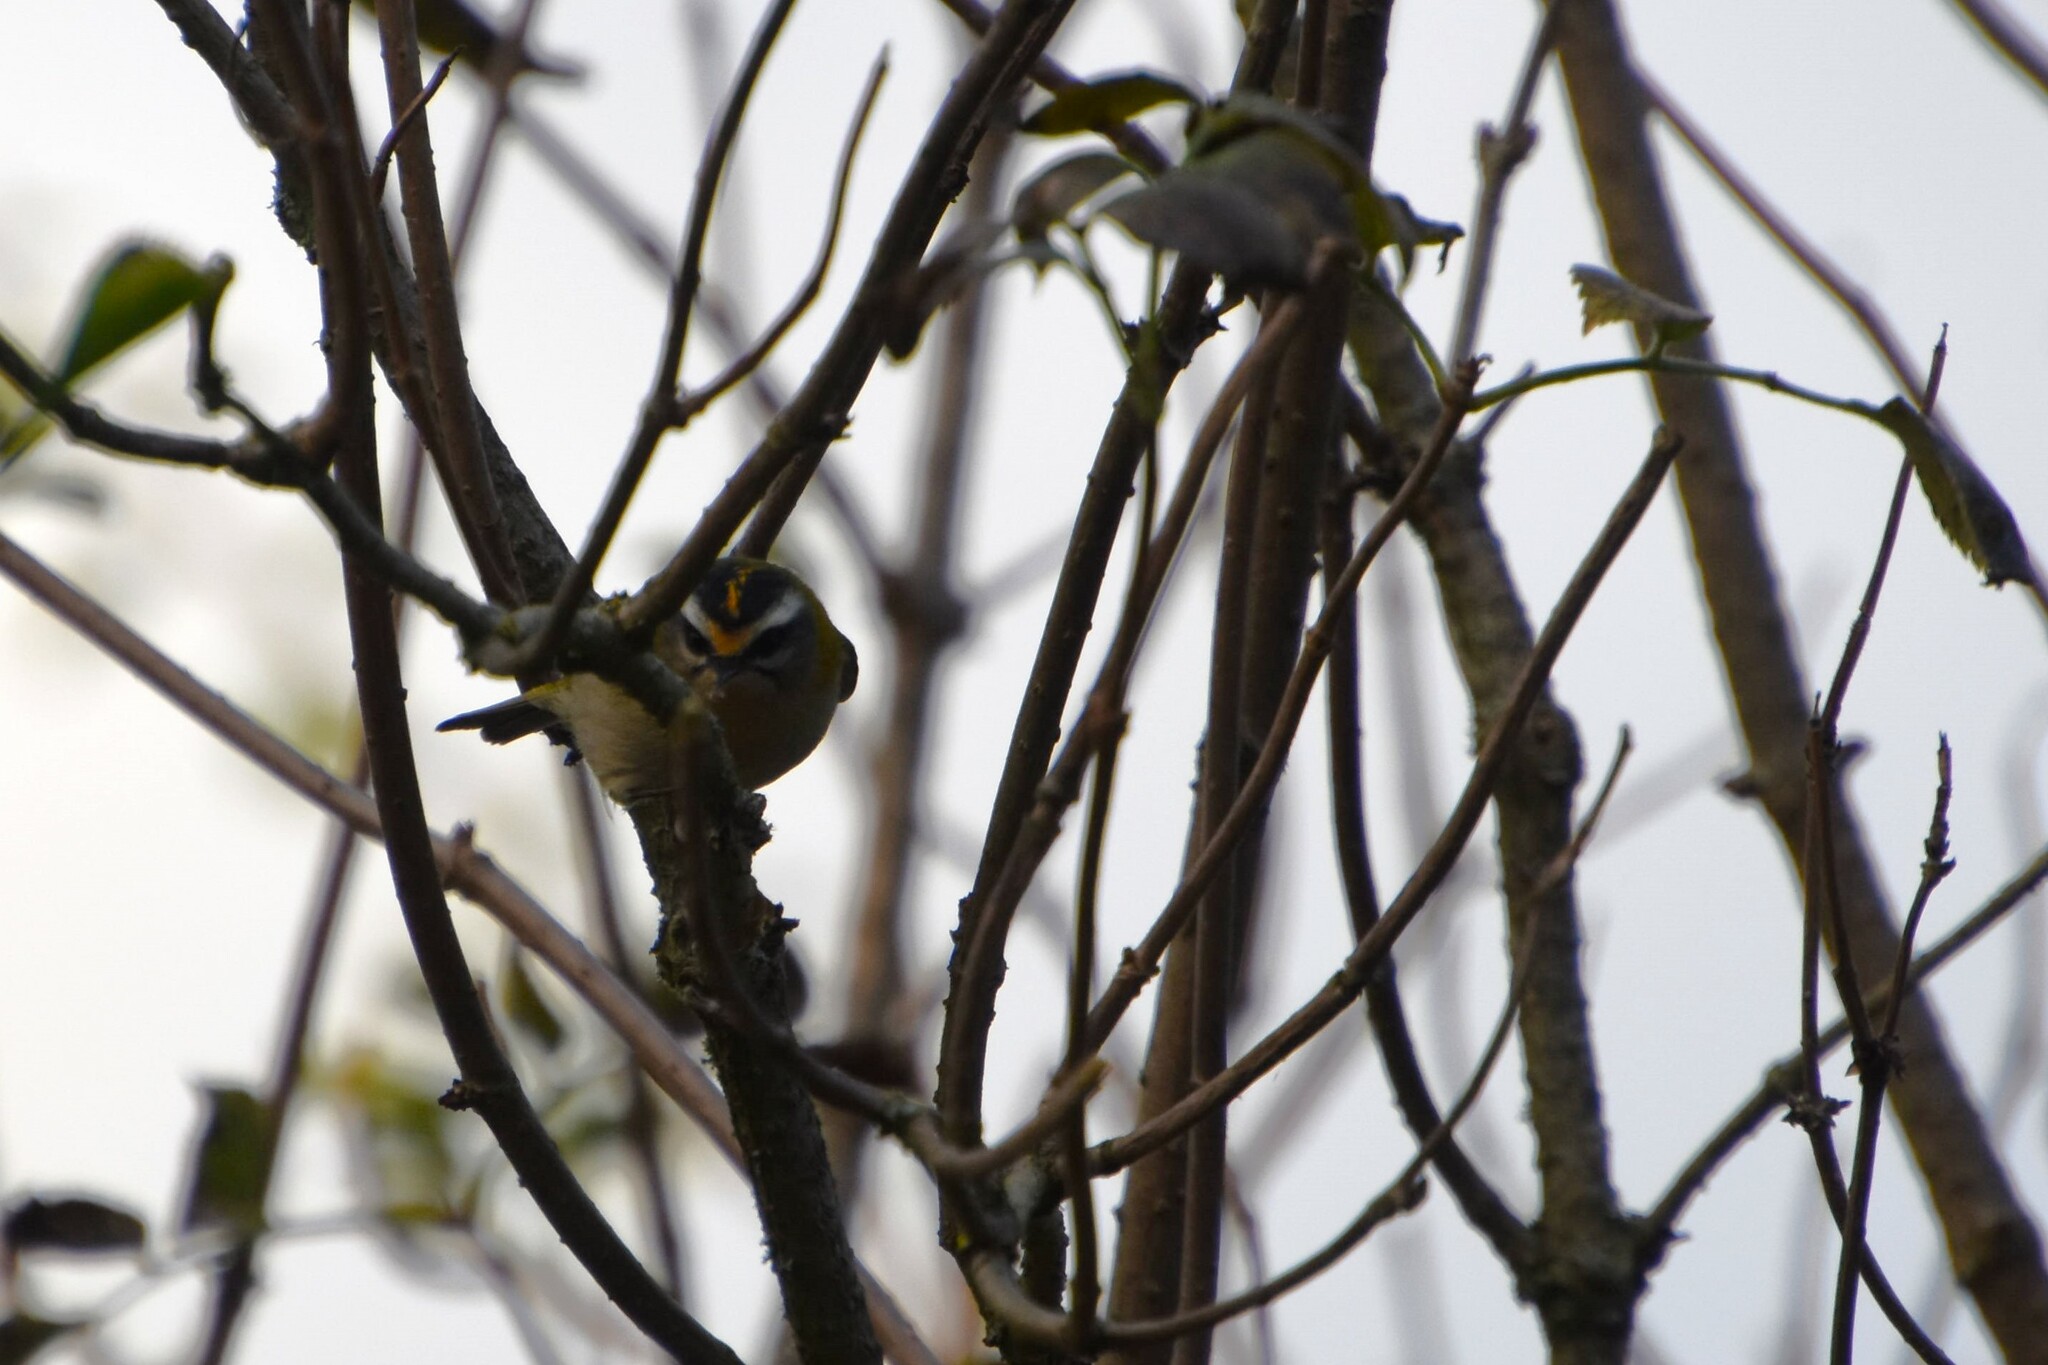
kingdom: Animalia
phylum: Chordata
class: Aves
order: Passeriformes
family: Regulidae
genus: Regulus
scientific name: Regulus ignicapilla
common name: Firecrest
